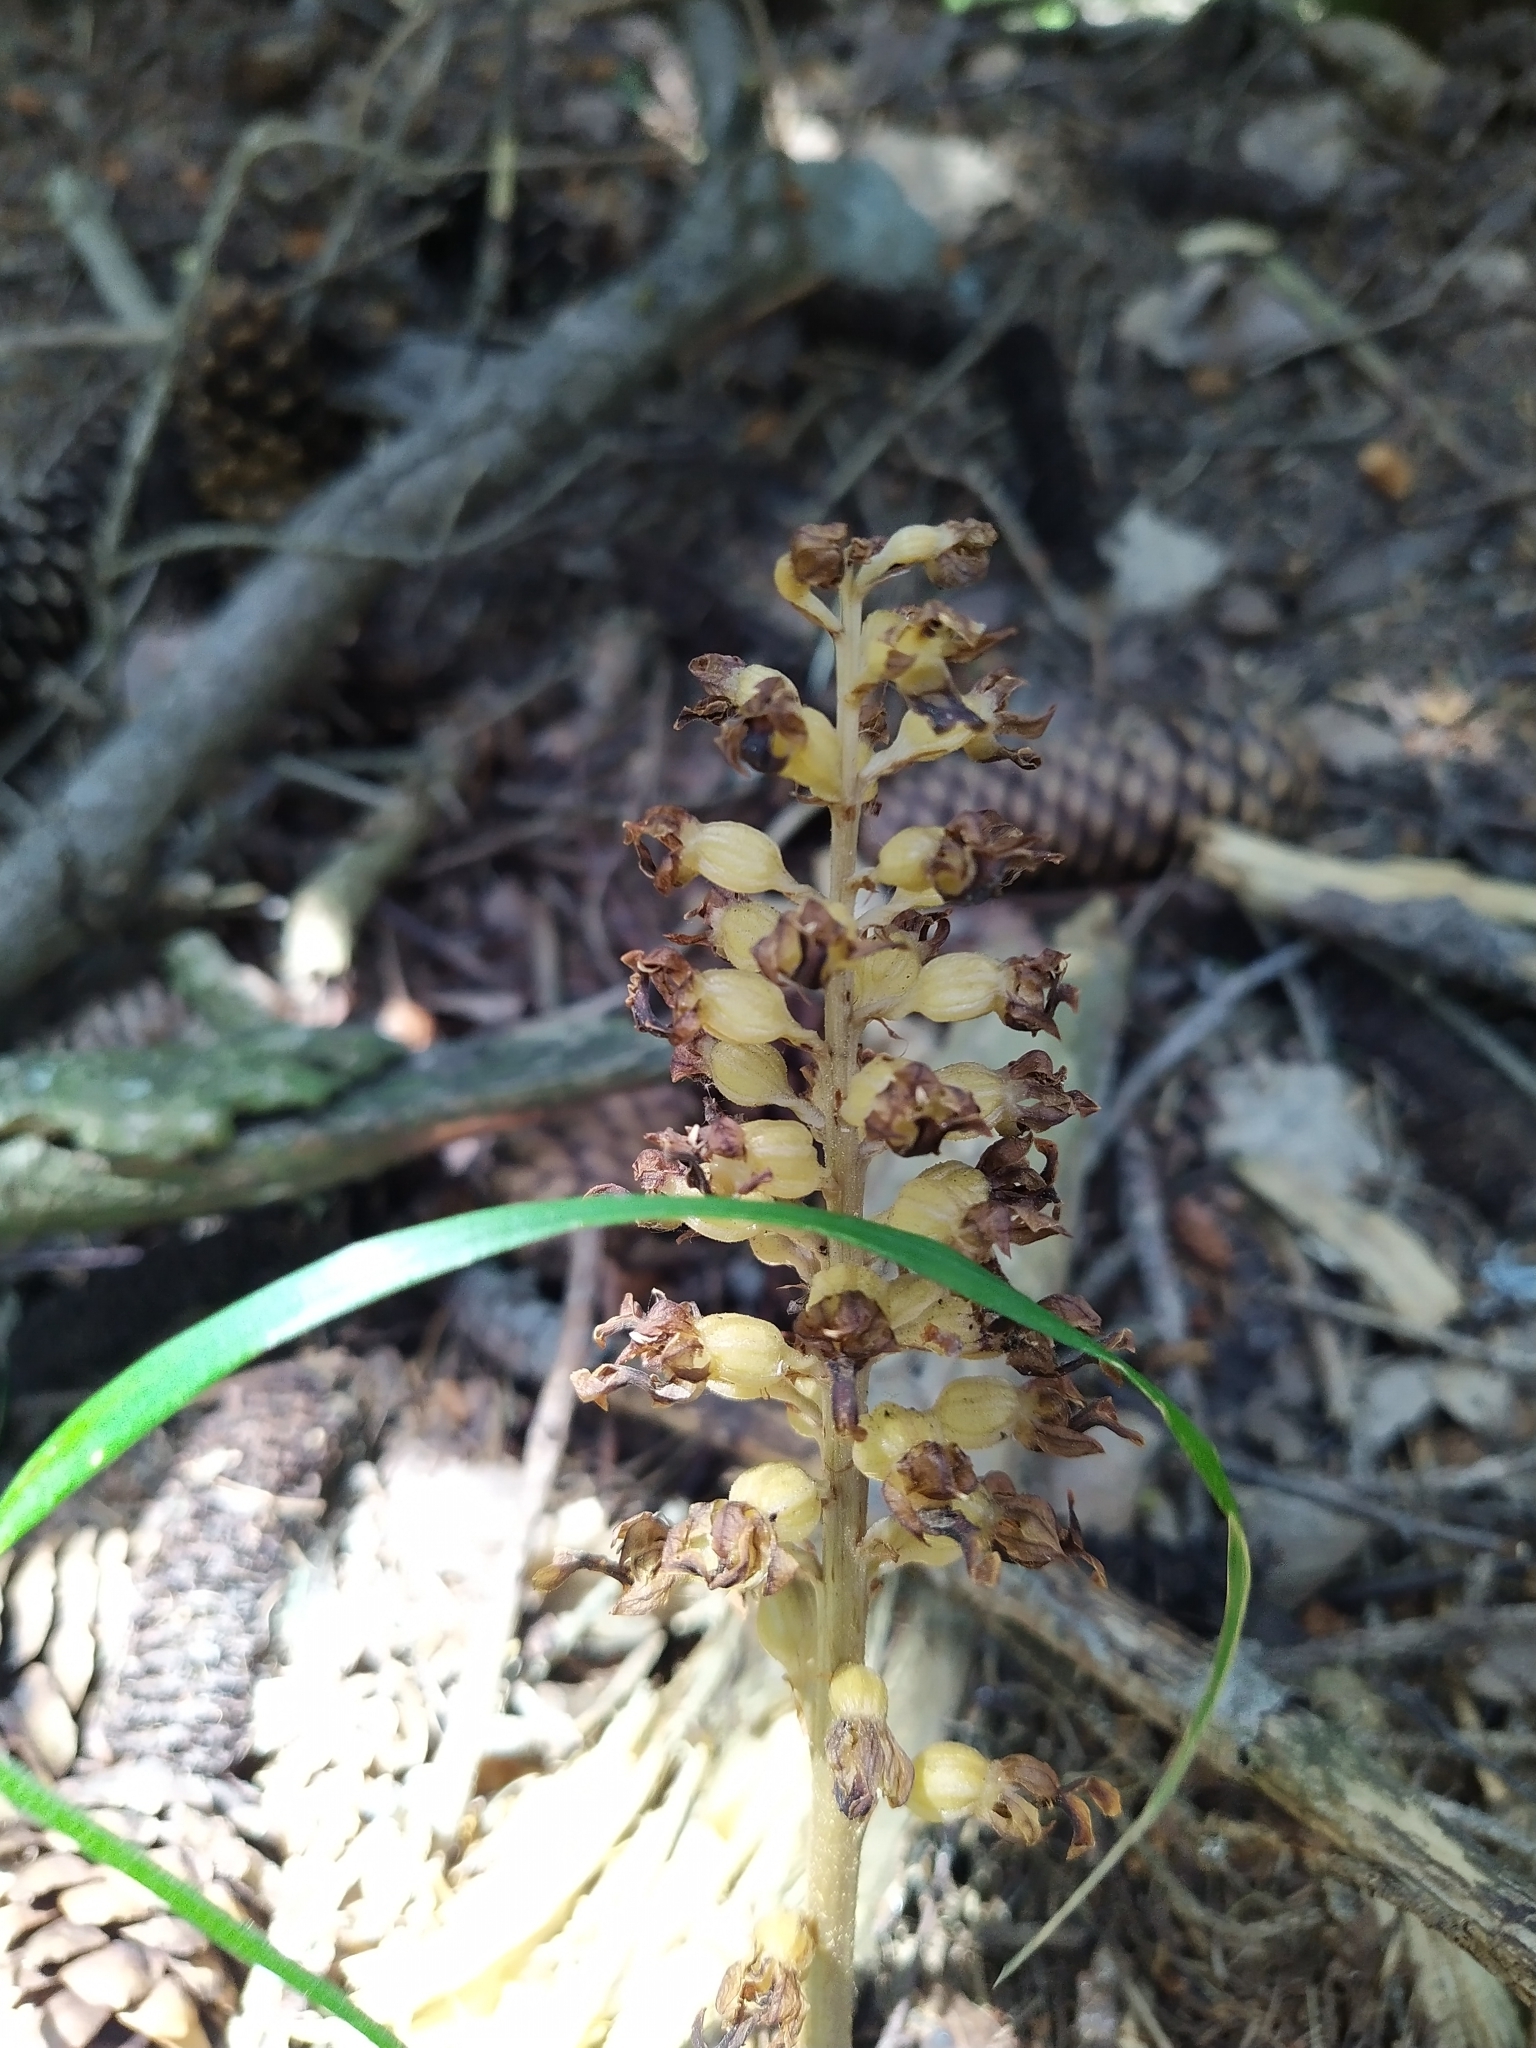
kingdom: Plantae
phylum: Tracheophyta
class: Liliopsida
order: Asparagales
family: Orchidaceae
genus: Neottia
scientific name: Neottia nidus-avis
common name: Bird's-nest orchid
